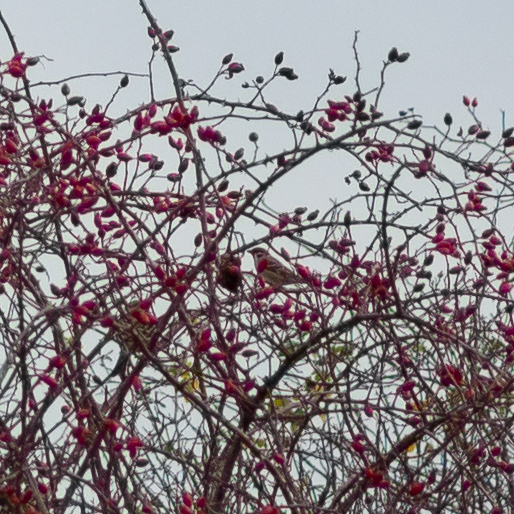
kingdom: Animalia
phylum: Chordata
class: Aves
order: Passeriformes
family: Passeridae
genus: Passer
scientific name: Passer montanus
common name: Eurasian tree sparrow
